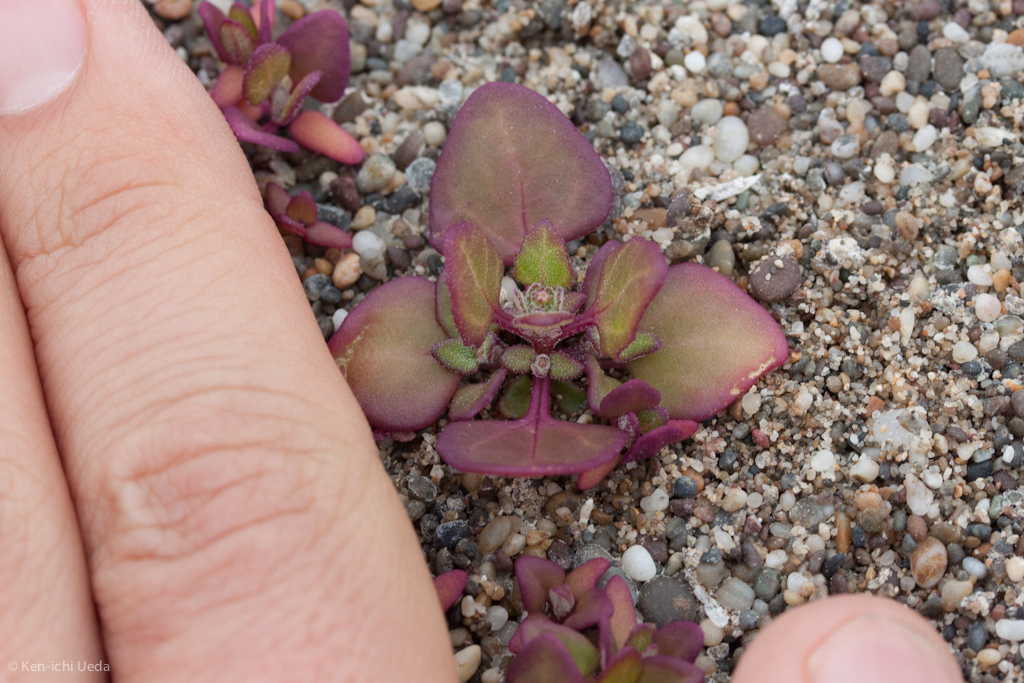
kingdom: Plantae
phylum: Tracheophyta
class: Magnoliopsida
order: Caryophyllales
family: Amaranthaceae
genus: Oxybasis
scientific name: Oxybasis
